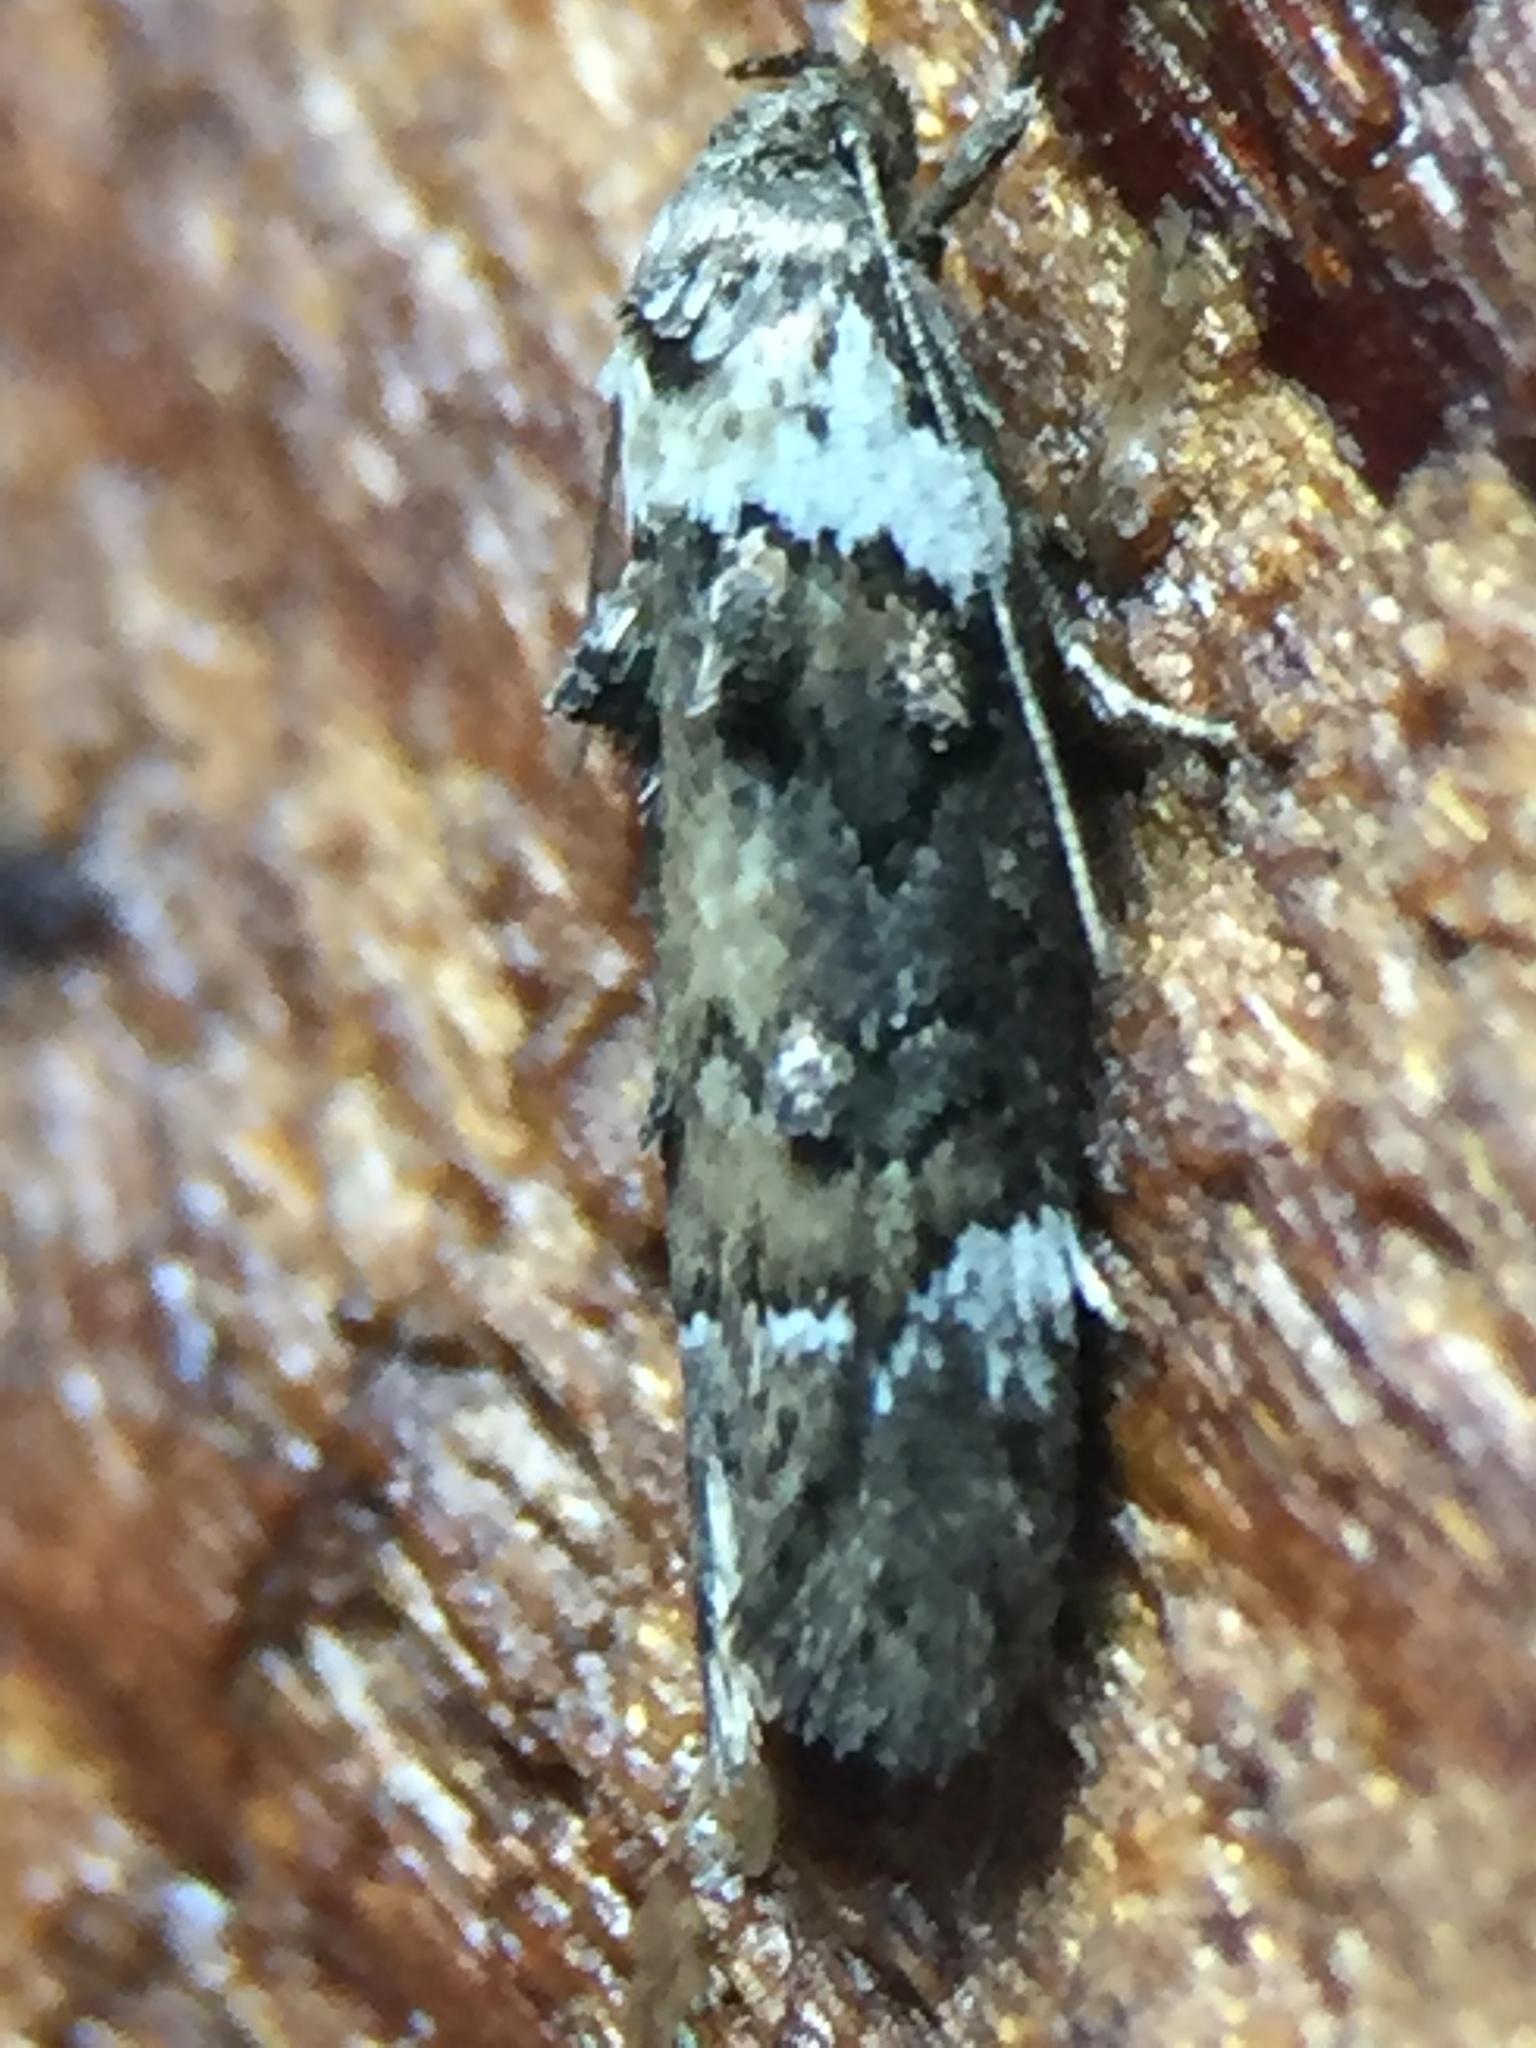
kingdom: Animalia
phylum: Arthropoda
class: Insecta
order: Lepidoptera
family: Oecophoridae
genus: Trachypepla
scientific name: Trachypepla conspicuella
